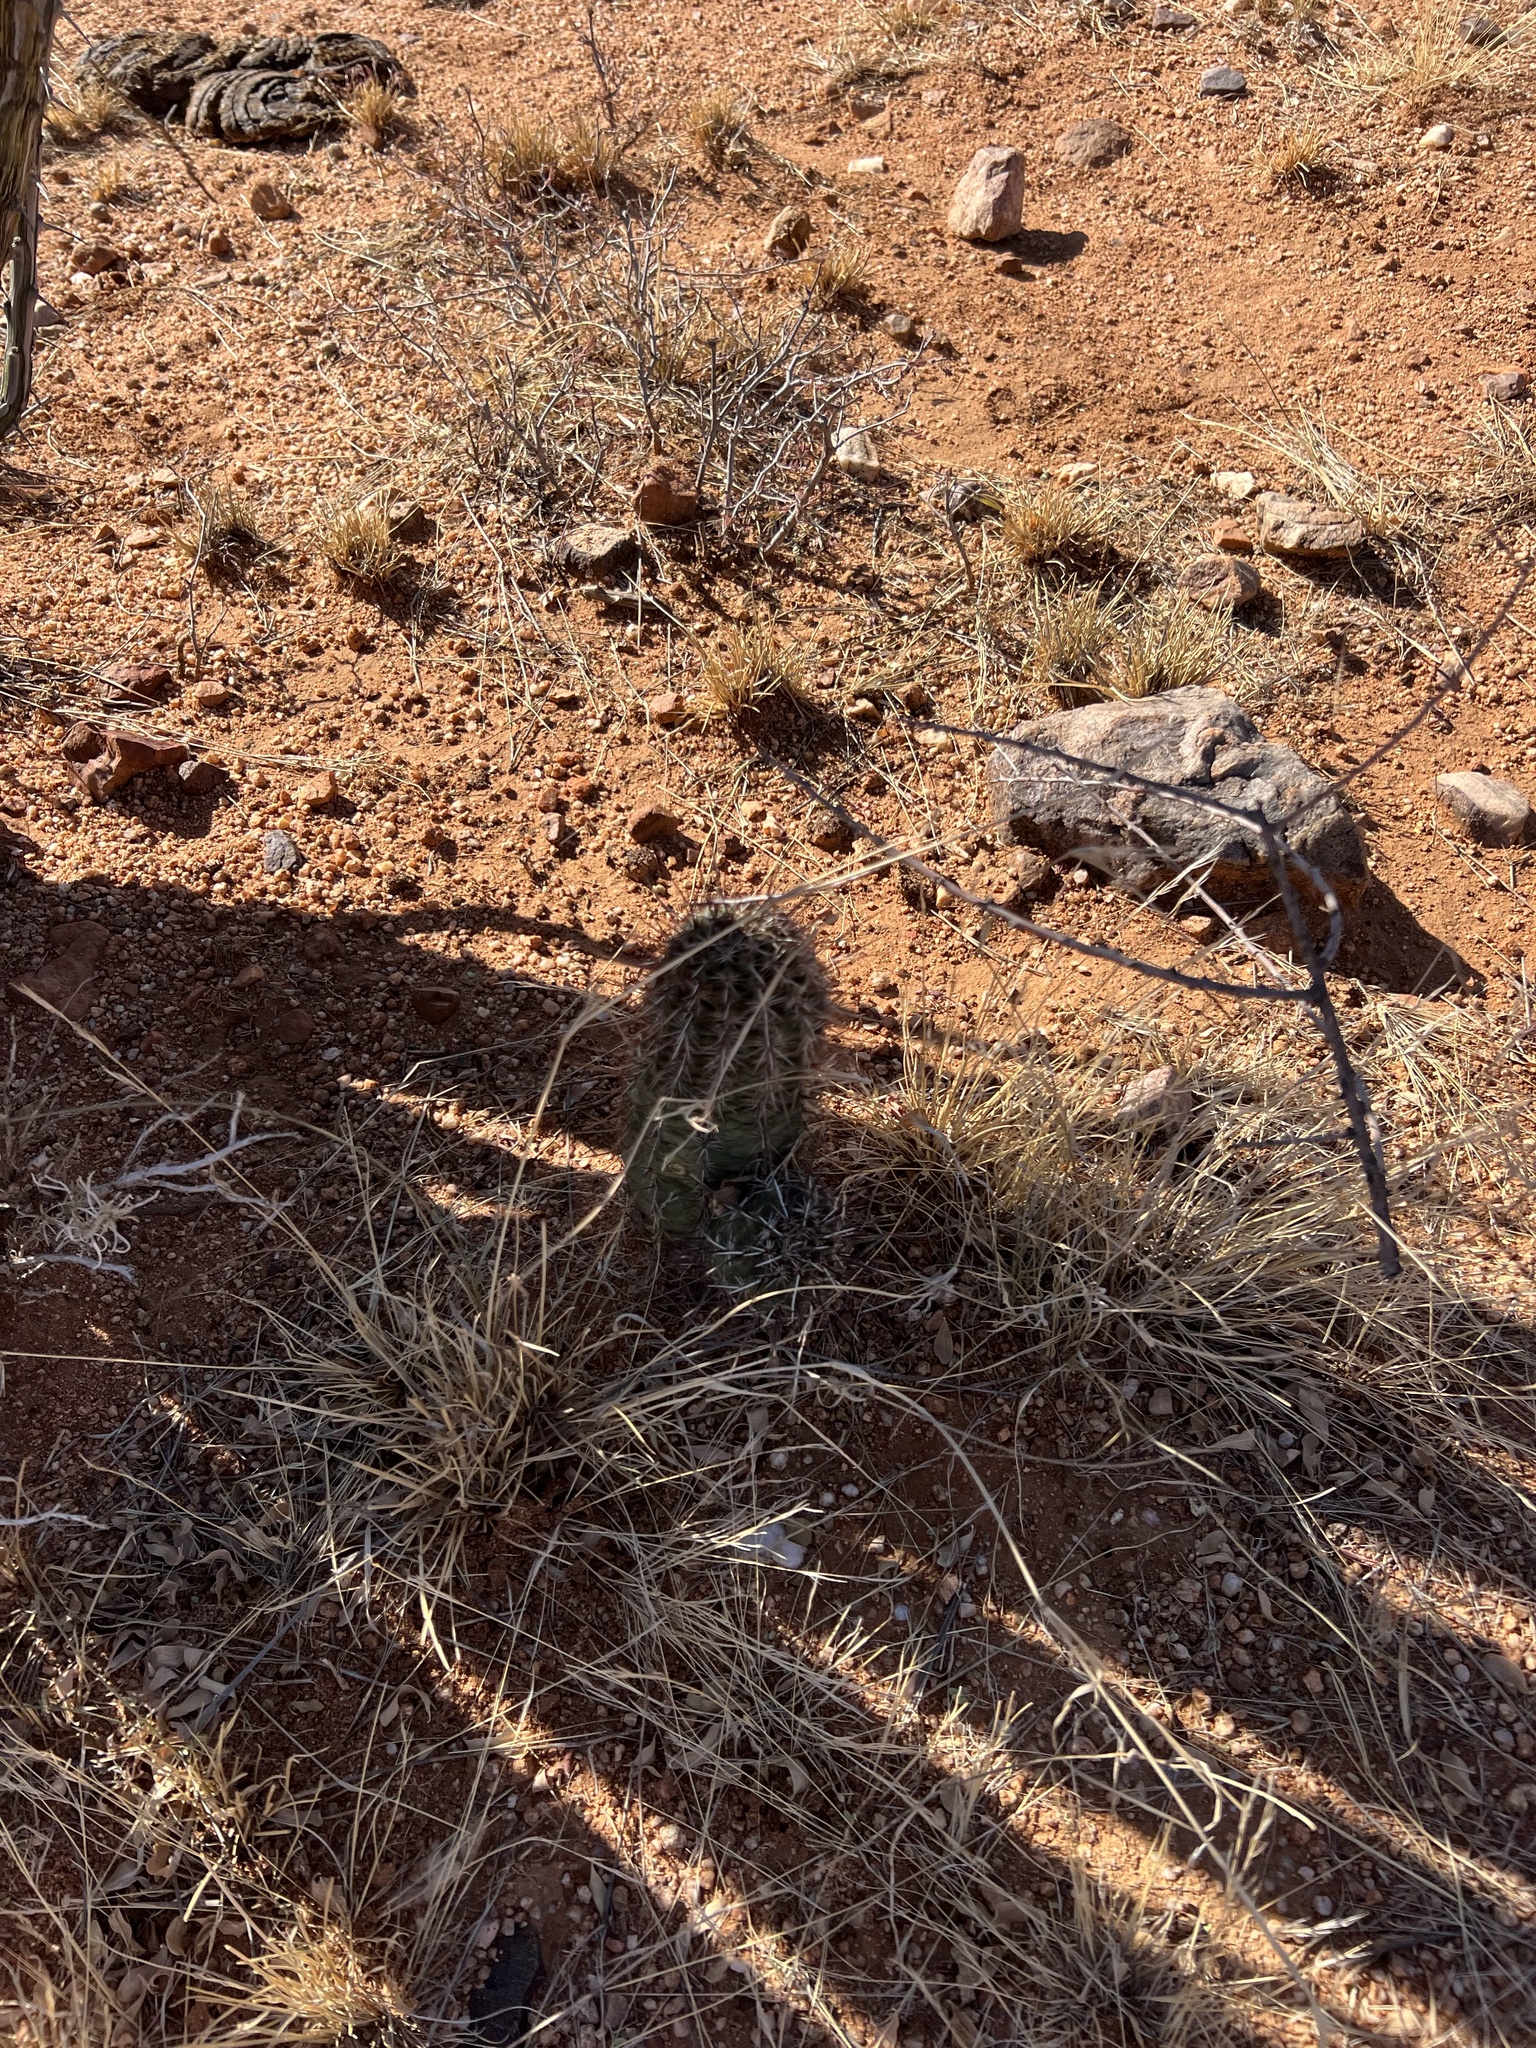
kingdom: Plantae
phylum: Tracheophyta
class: Magnoliopsida
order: Caryophyllales
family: Cactaceae
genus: Echinocereus
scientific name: Echinocereus fasciculatus
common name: Bundle hedgehog
